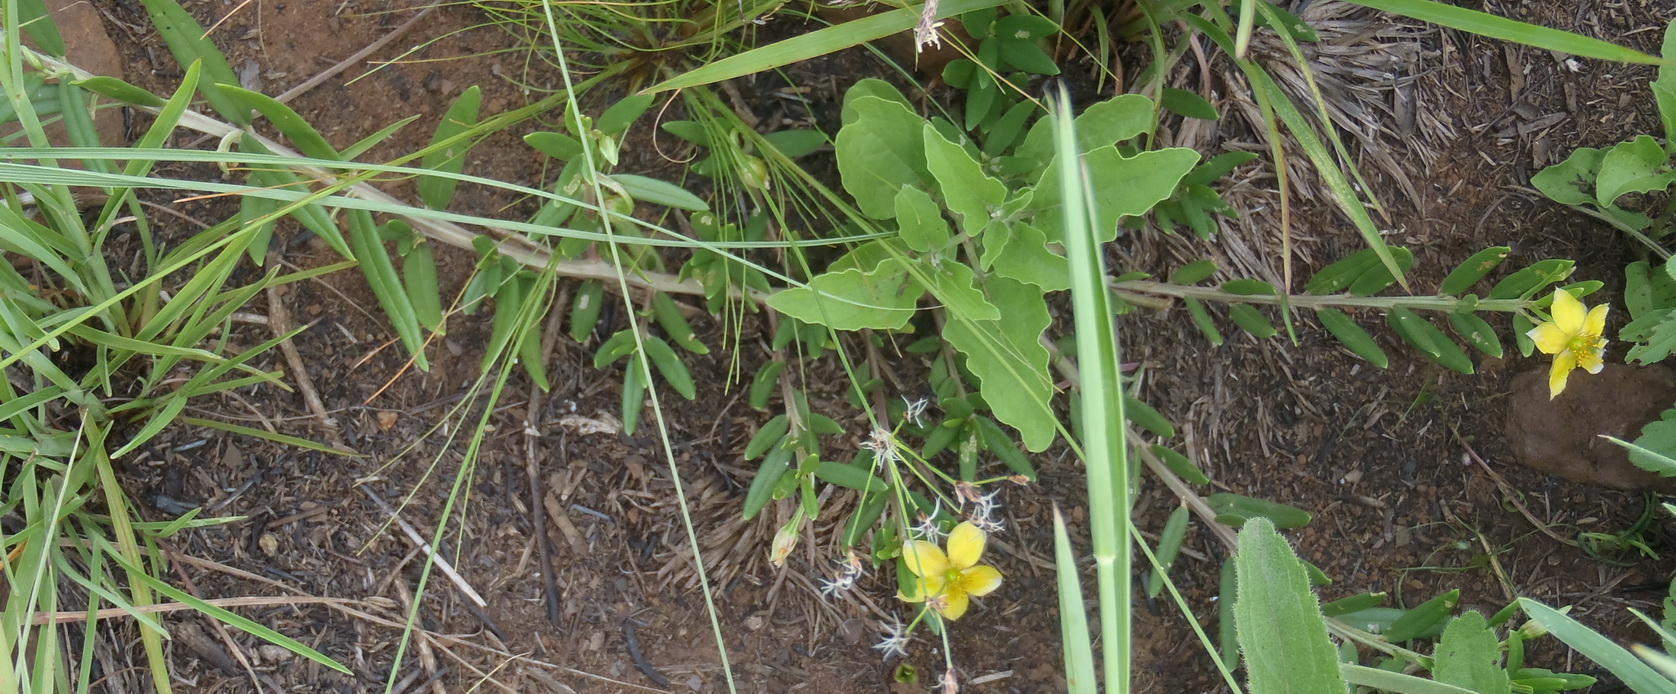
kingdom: Plantae
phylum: Tracheophyta
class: Magnoliopsida
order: Caryophyllales
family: Talinaceae
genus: Talinum
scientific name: Talinum caffrum
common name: Flameflower
